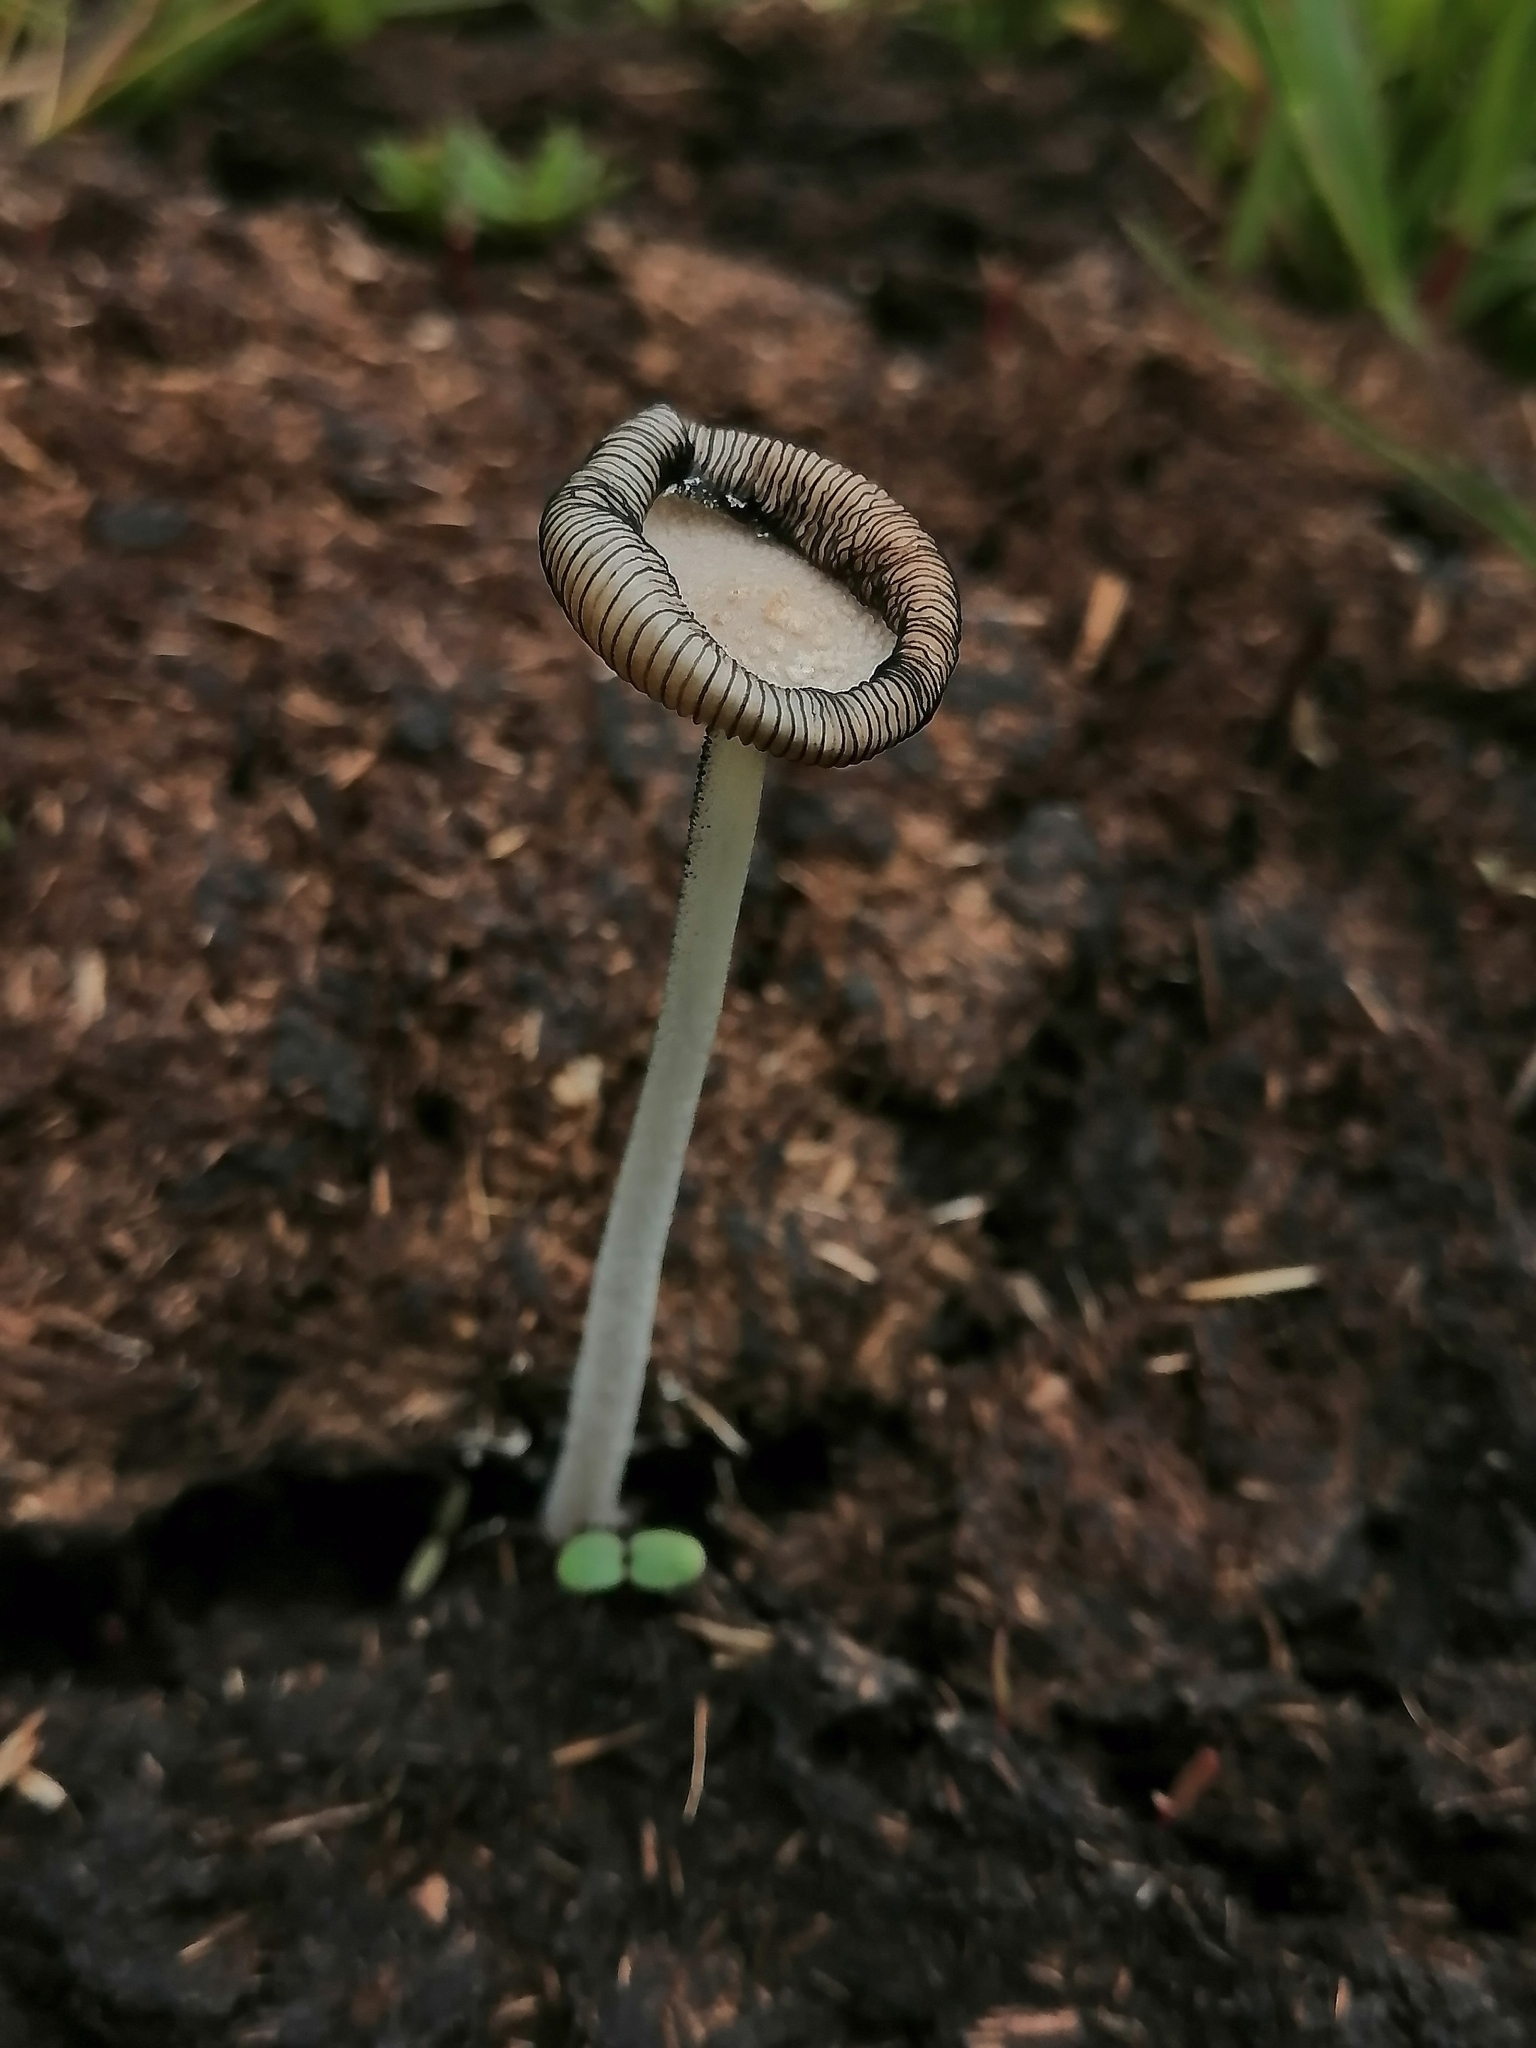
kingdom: Fungi
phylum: Basidiomycota
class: Agaricomycetes
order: Agaricales
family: Psathyrellaceae
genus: Coprinopsis
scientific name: Coprinopsis nivea
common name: Snowy inkcap
